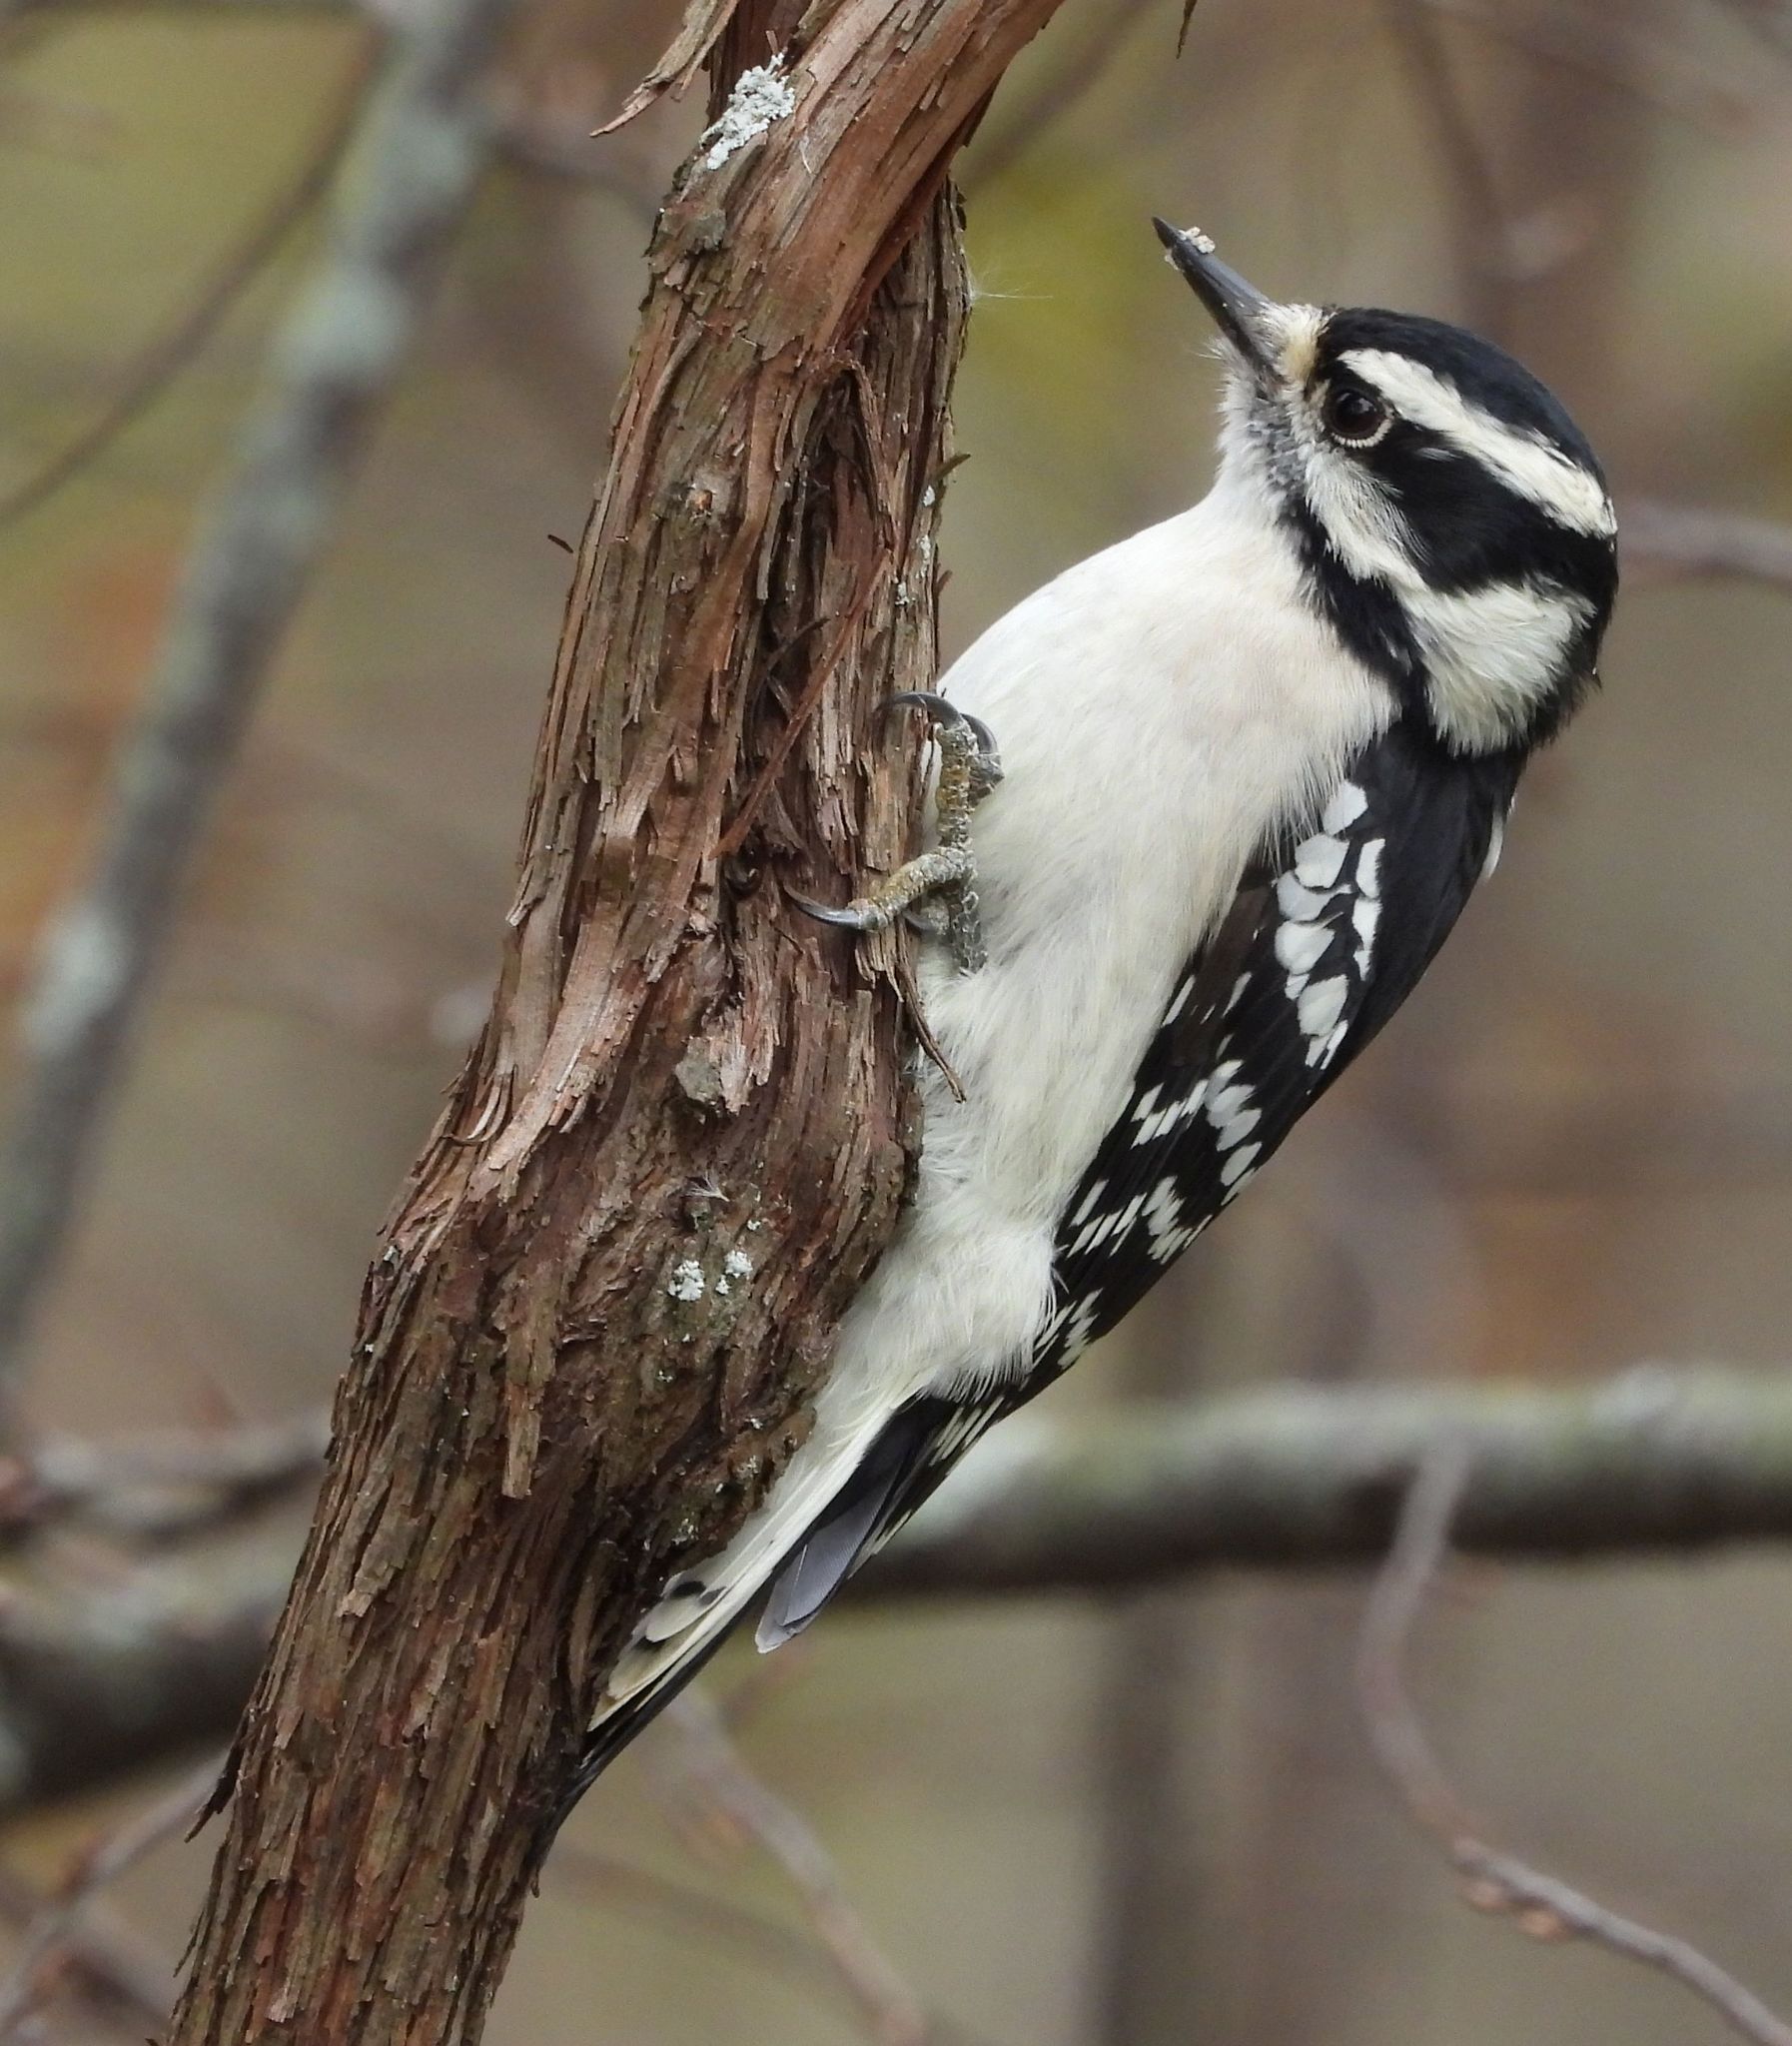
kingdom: Animalia
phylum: Chordata
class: Aves
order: Piciformes
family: Picidae
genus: Dryobates
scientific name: Dryobates pubescens
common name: Downy woodpecker
